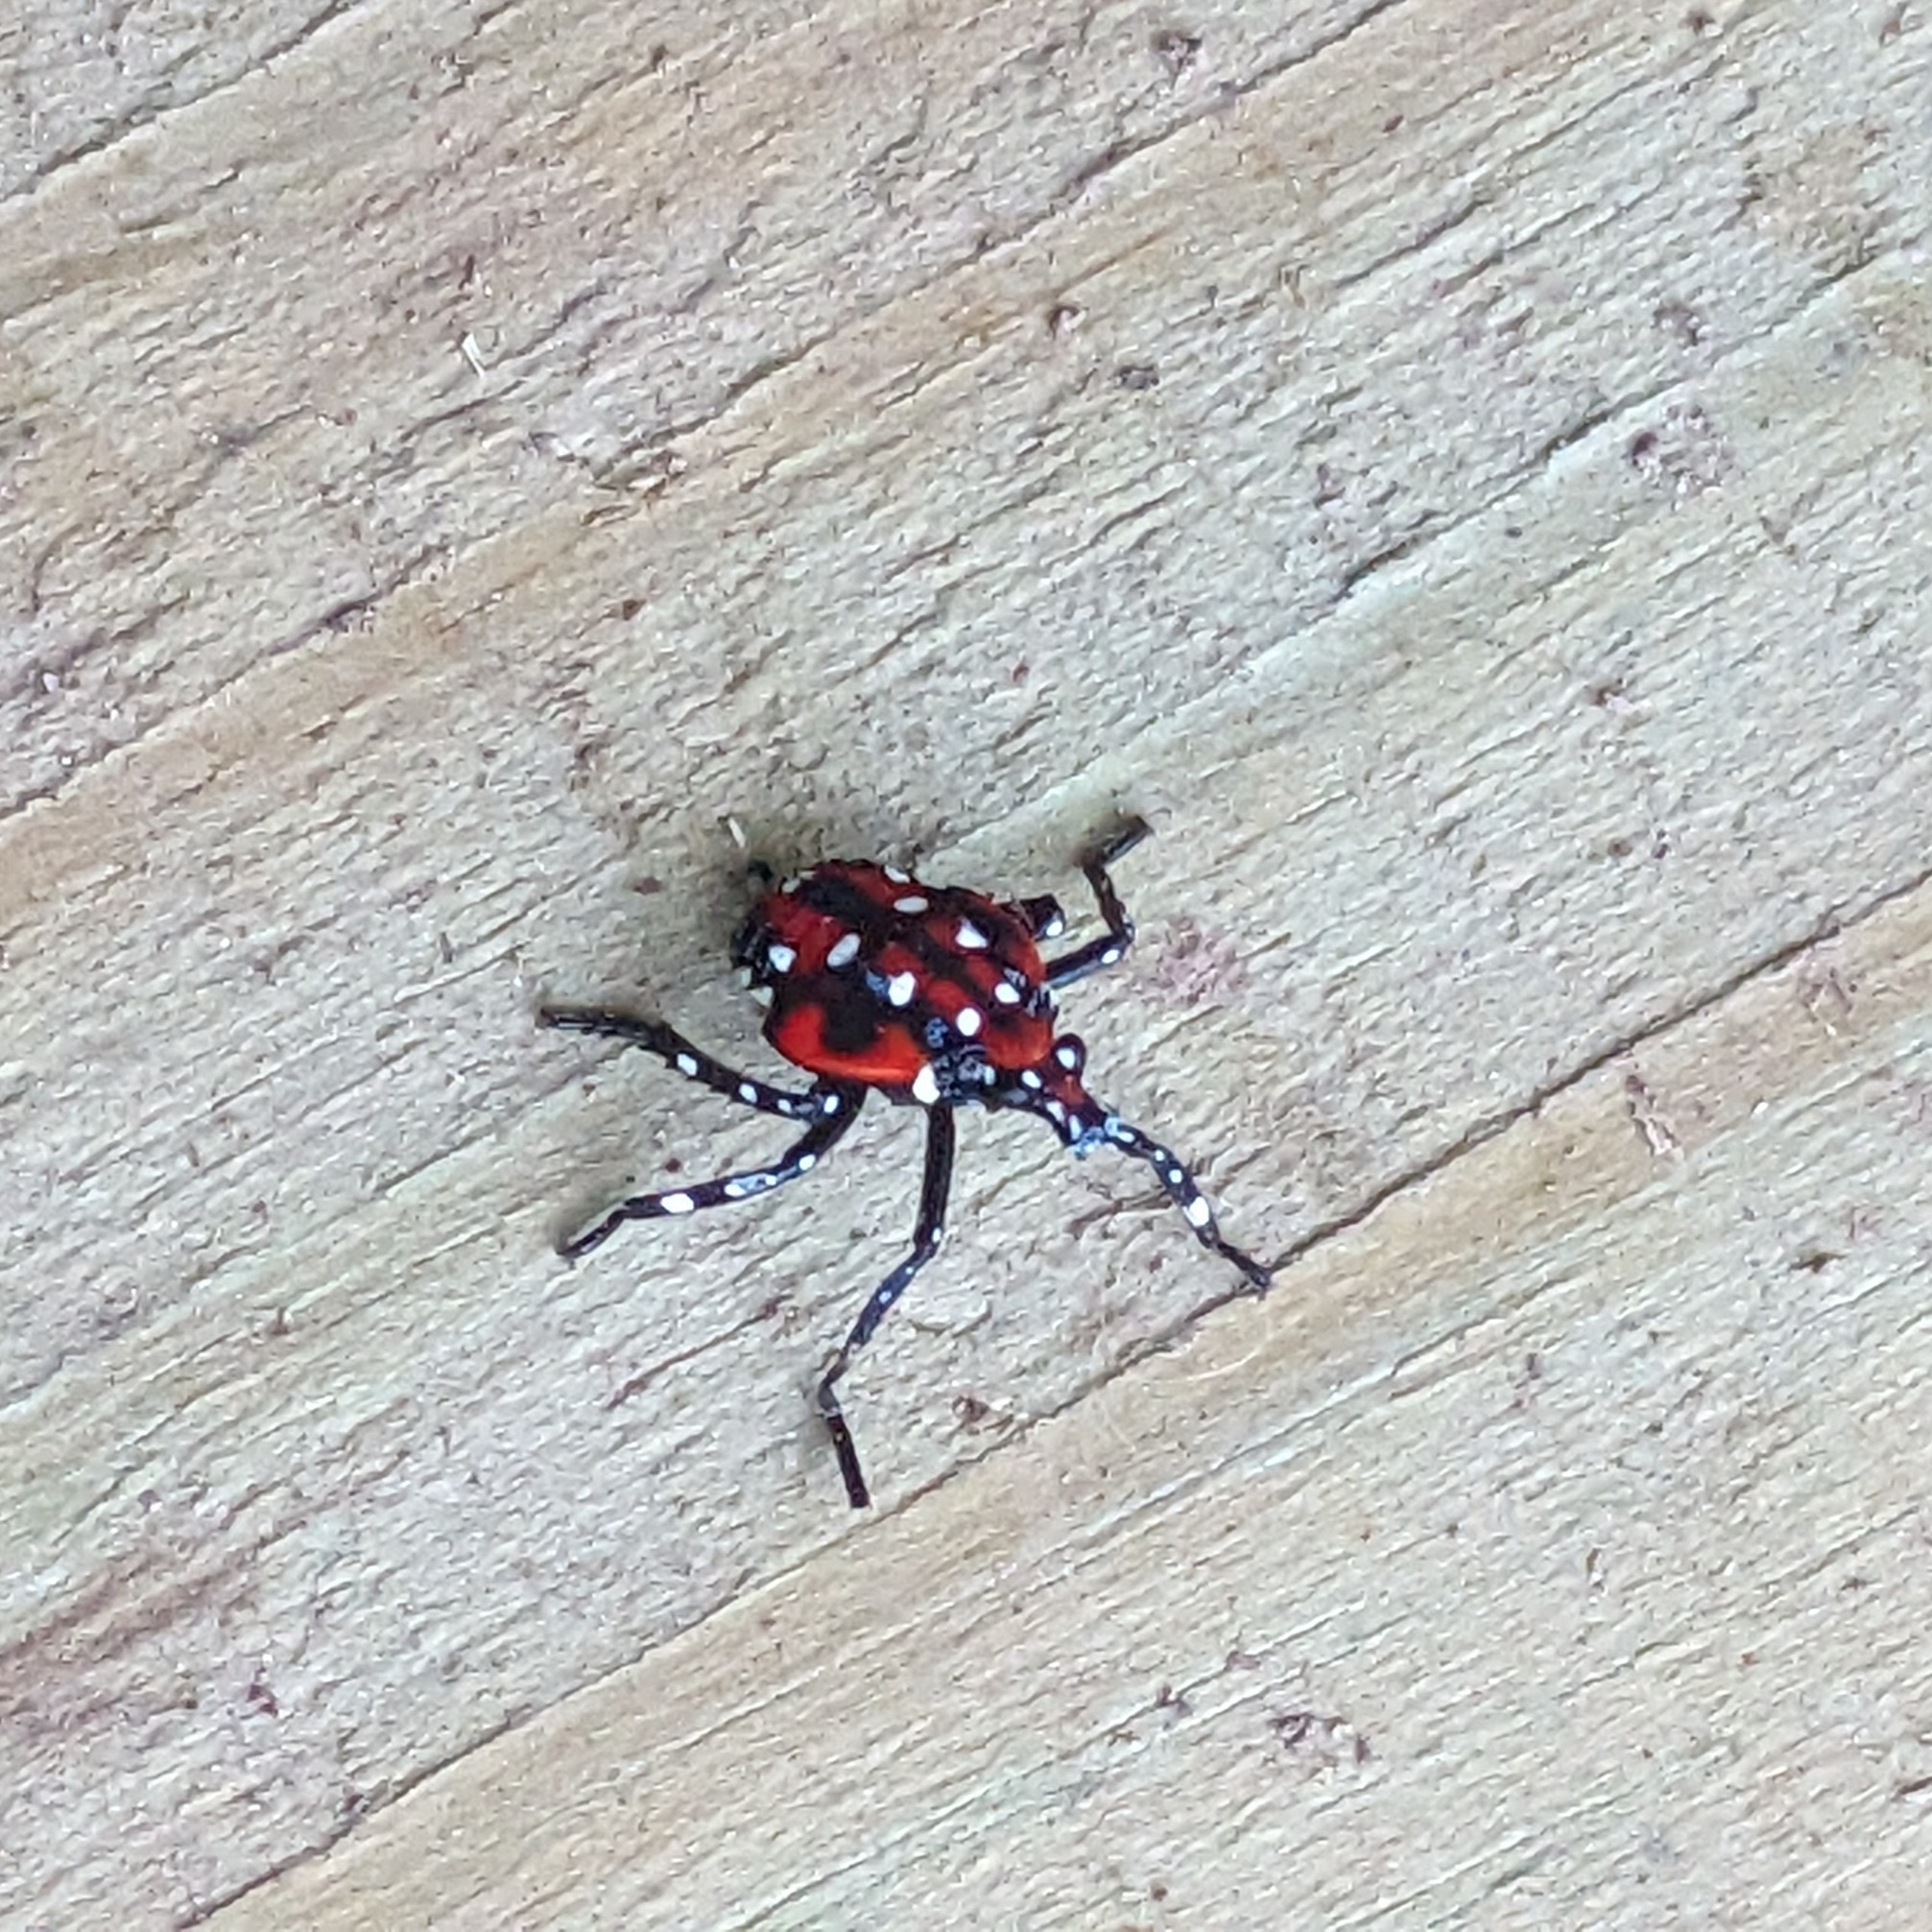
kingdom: Animalia
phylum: Arthropoda
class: Insecta
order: Hemiptera
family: Fulgoridae
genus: Lycorma
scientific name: Lycorma delicatula
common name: Spotted lanternfly
